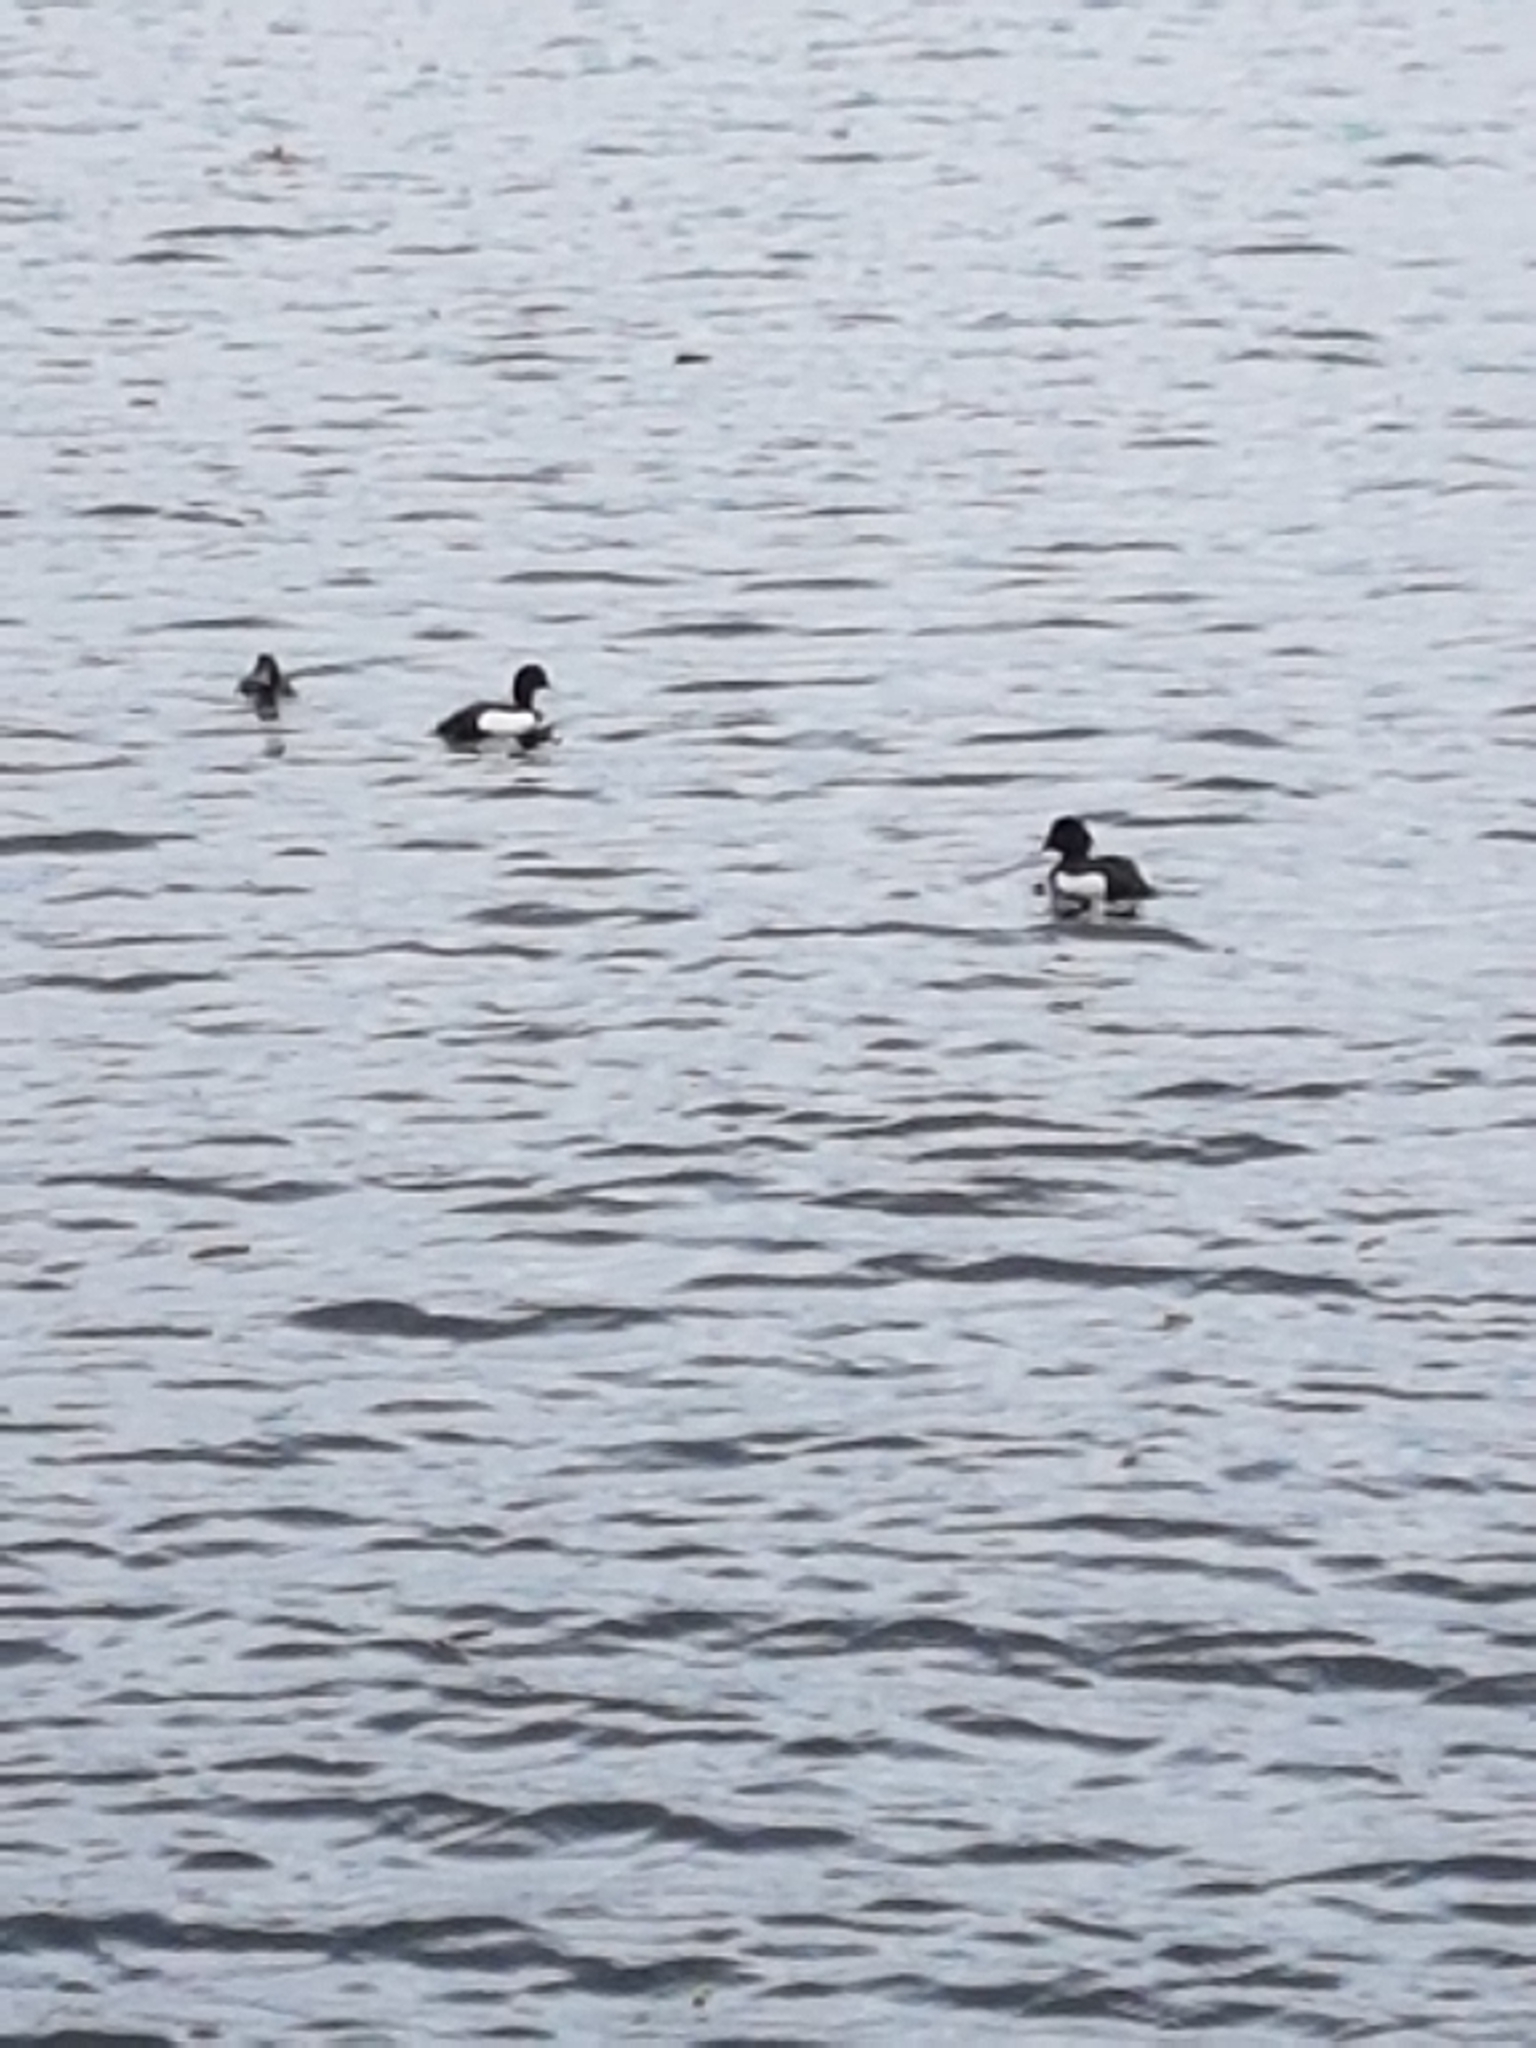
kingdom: Animalia
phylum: Chordata
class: Aves
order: Anseriformes
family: Anatidae
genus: Aythya
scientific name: Aythya fuligula
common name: Tufted duck
